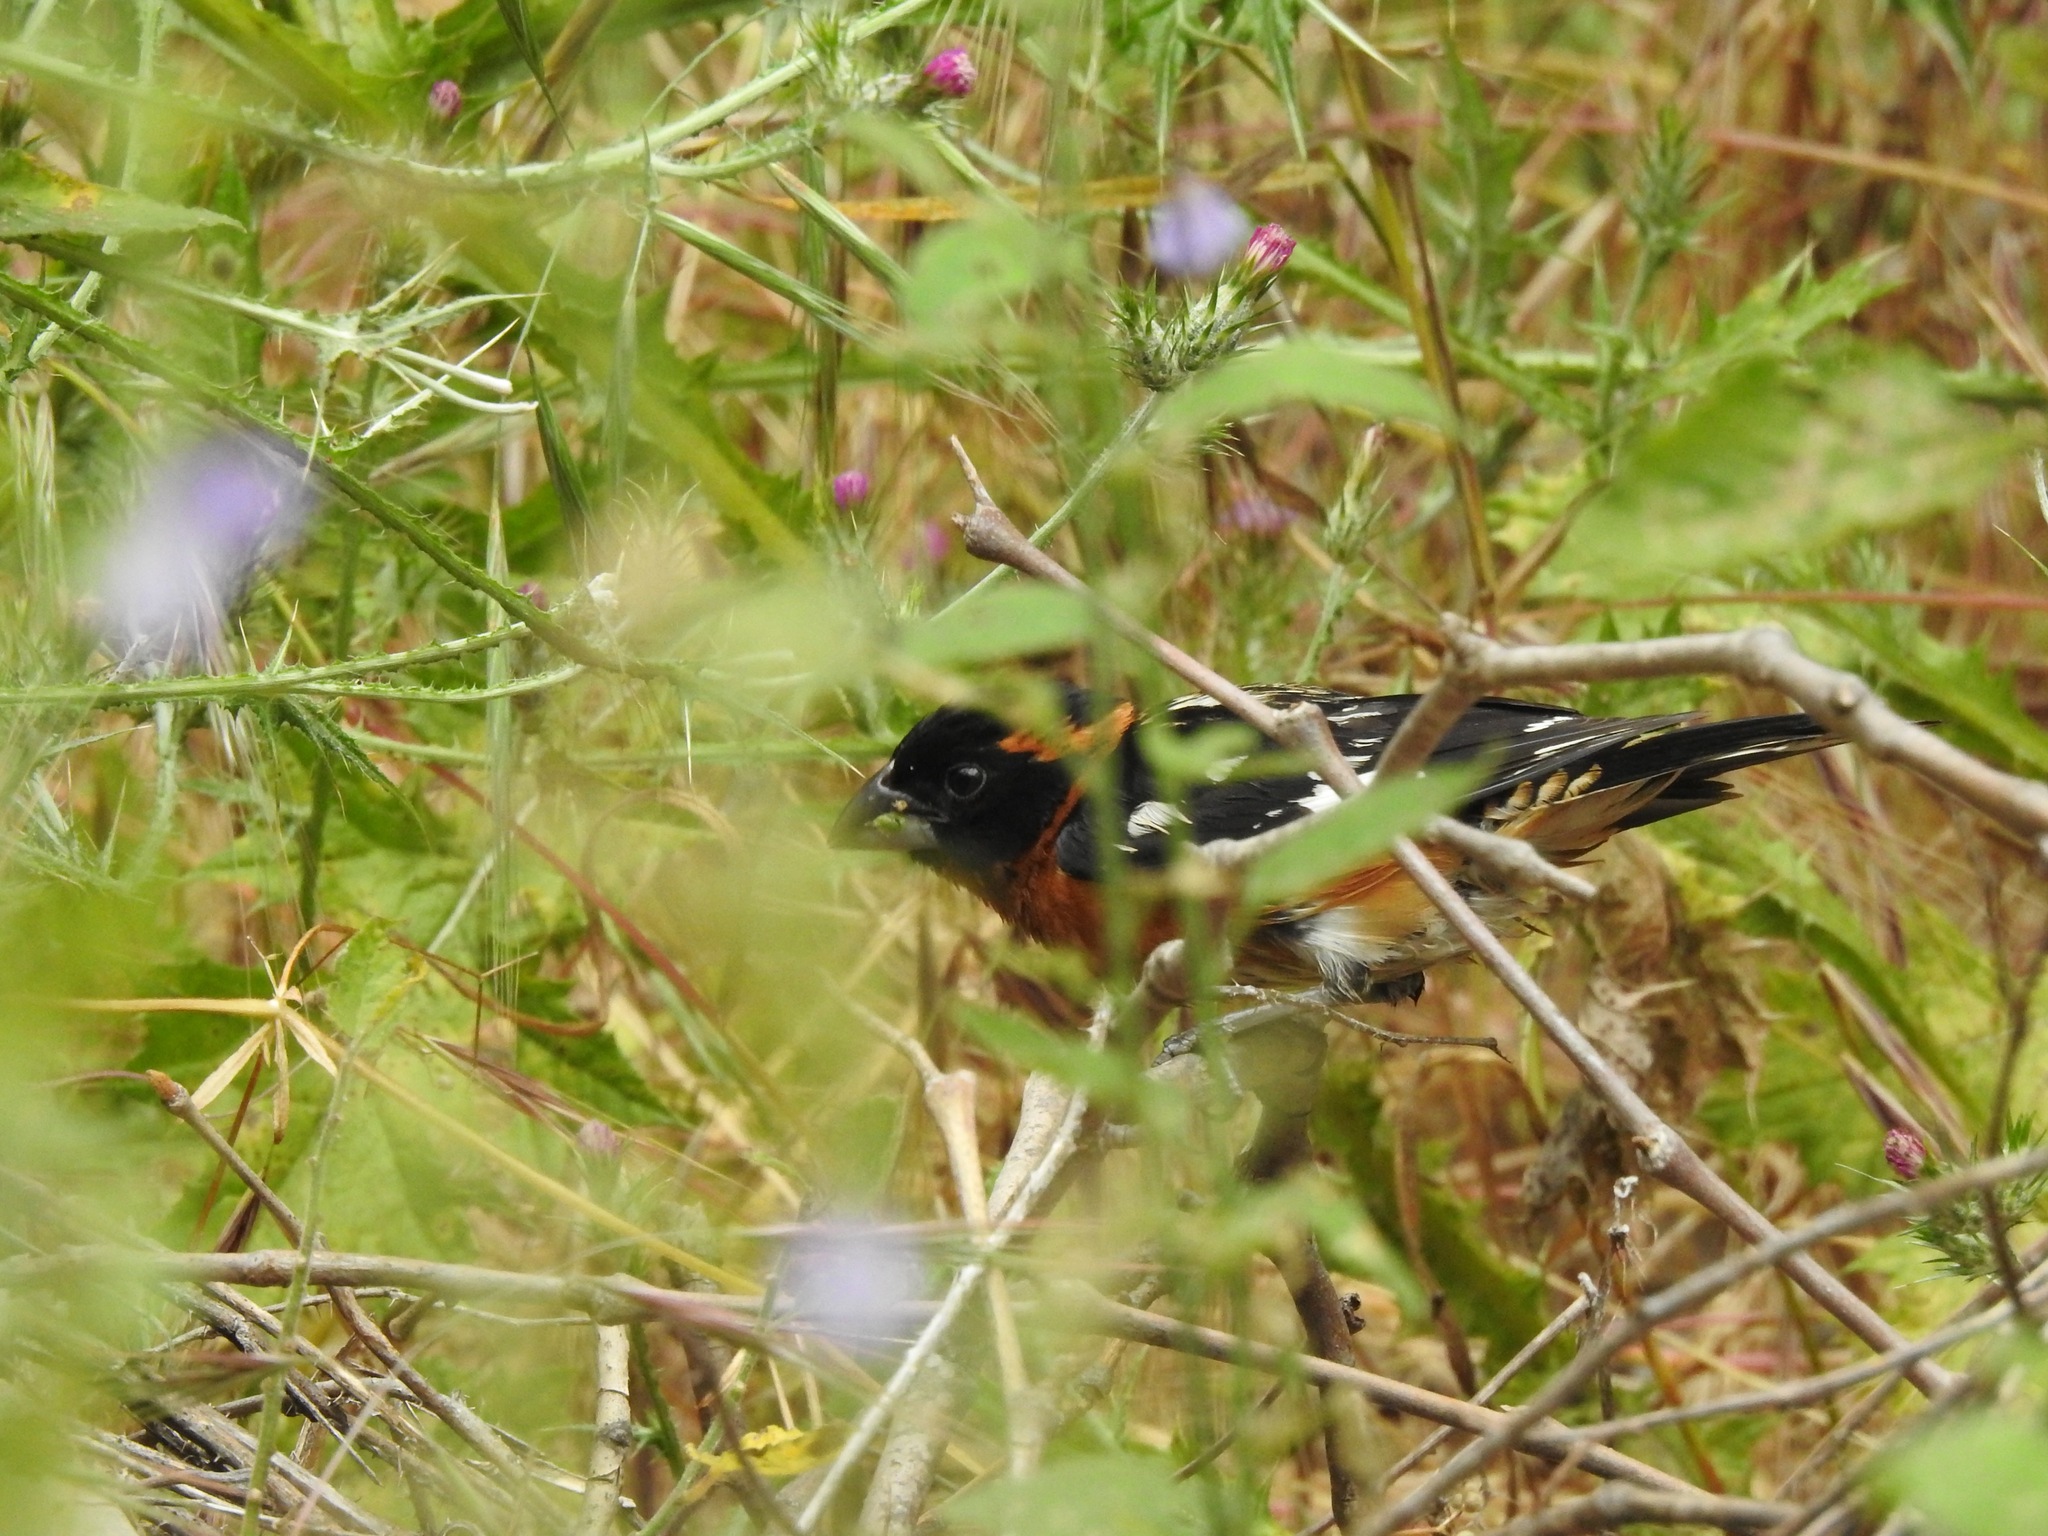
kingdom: Animalia
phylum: Chordata
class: Aves
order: Passeriformes
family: Cardinalidae
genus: Pheucticus
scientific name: Pheucticus melanocephalus
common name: Black-headed grosbeak
